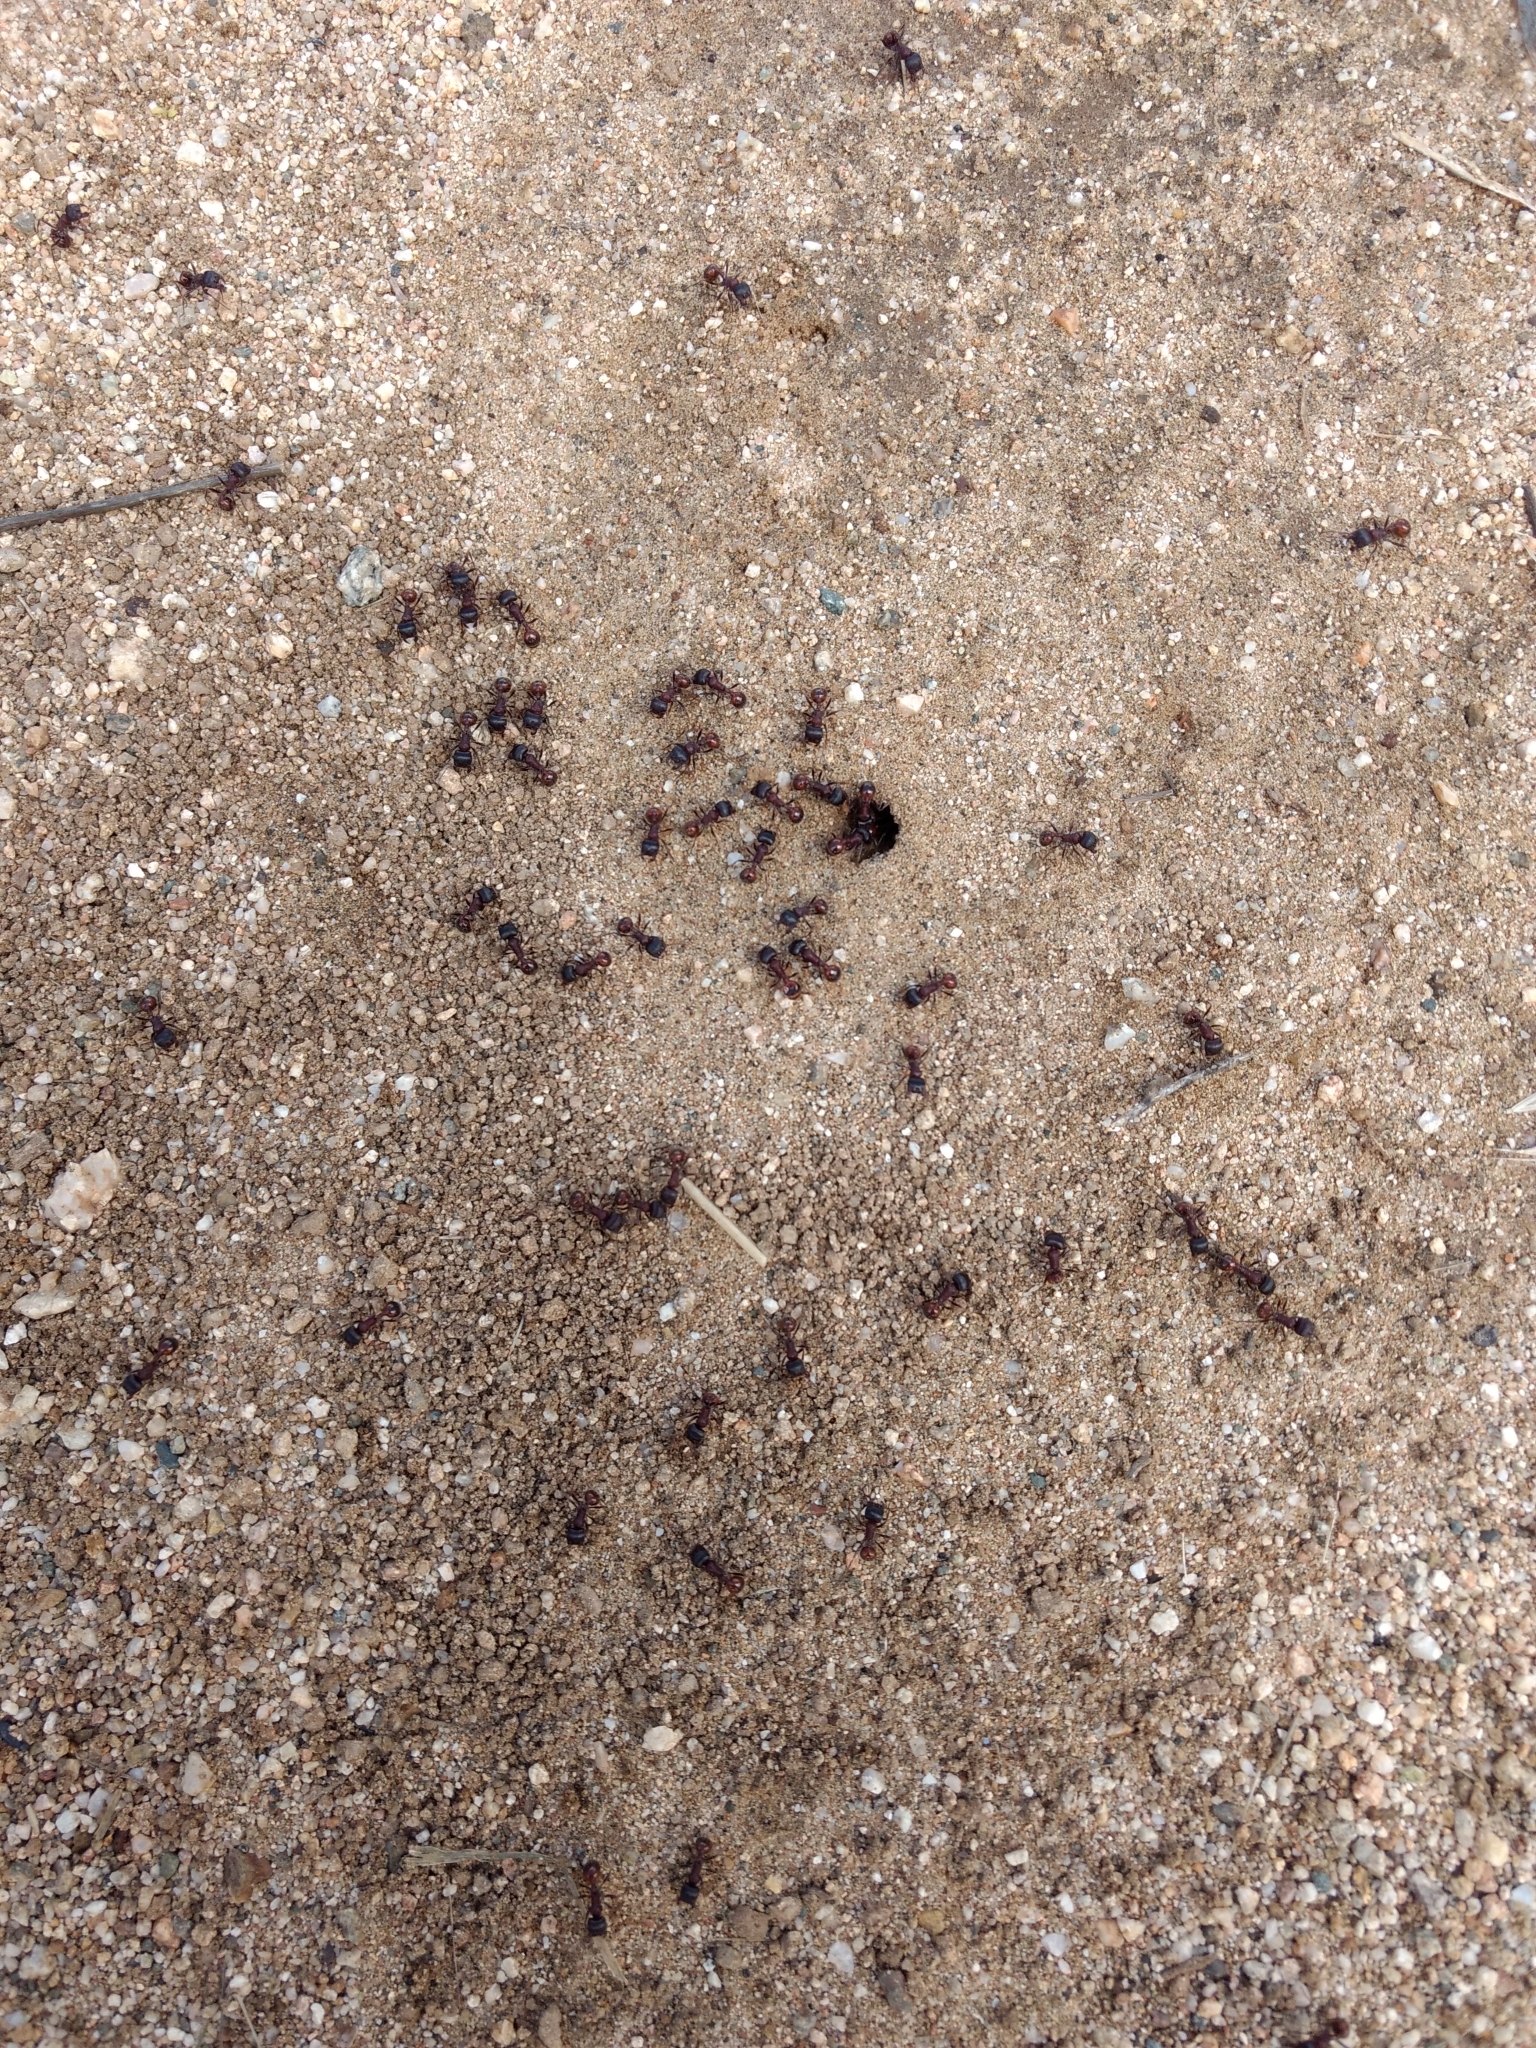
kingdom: Animalia
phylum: Arthropoda
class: Insecta
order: Hymenoptera
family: Formicidae
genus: Pogonomyrmex
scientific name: Pogonomyrmex rugosus
